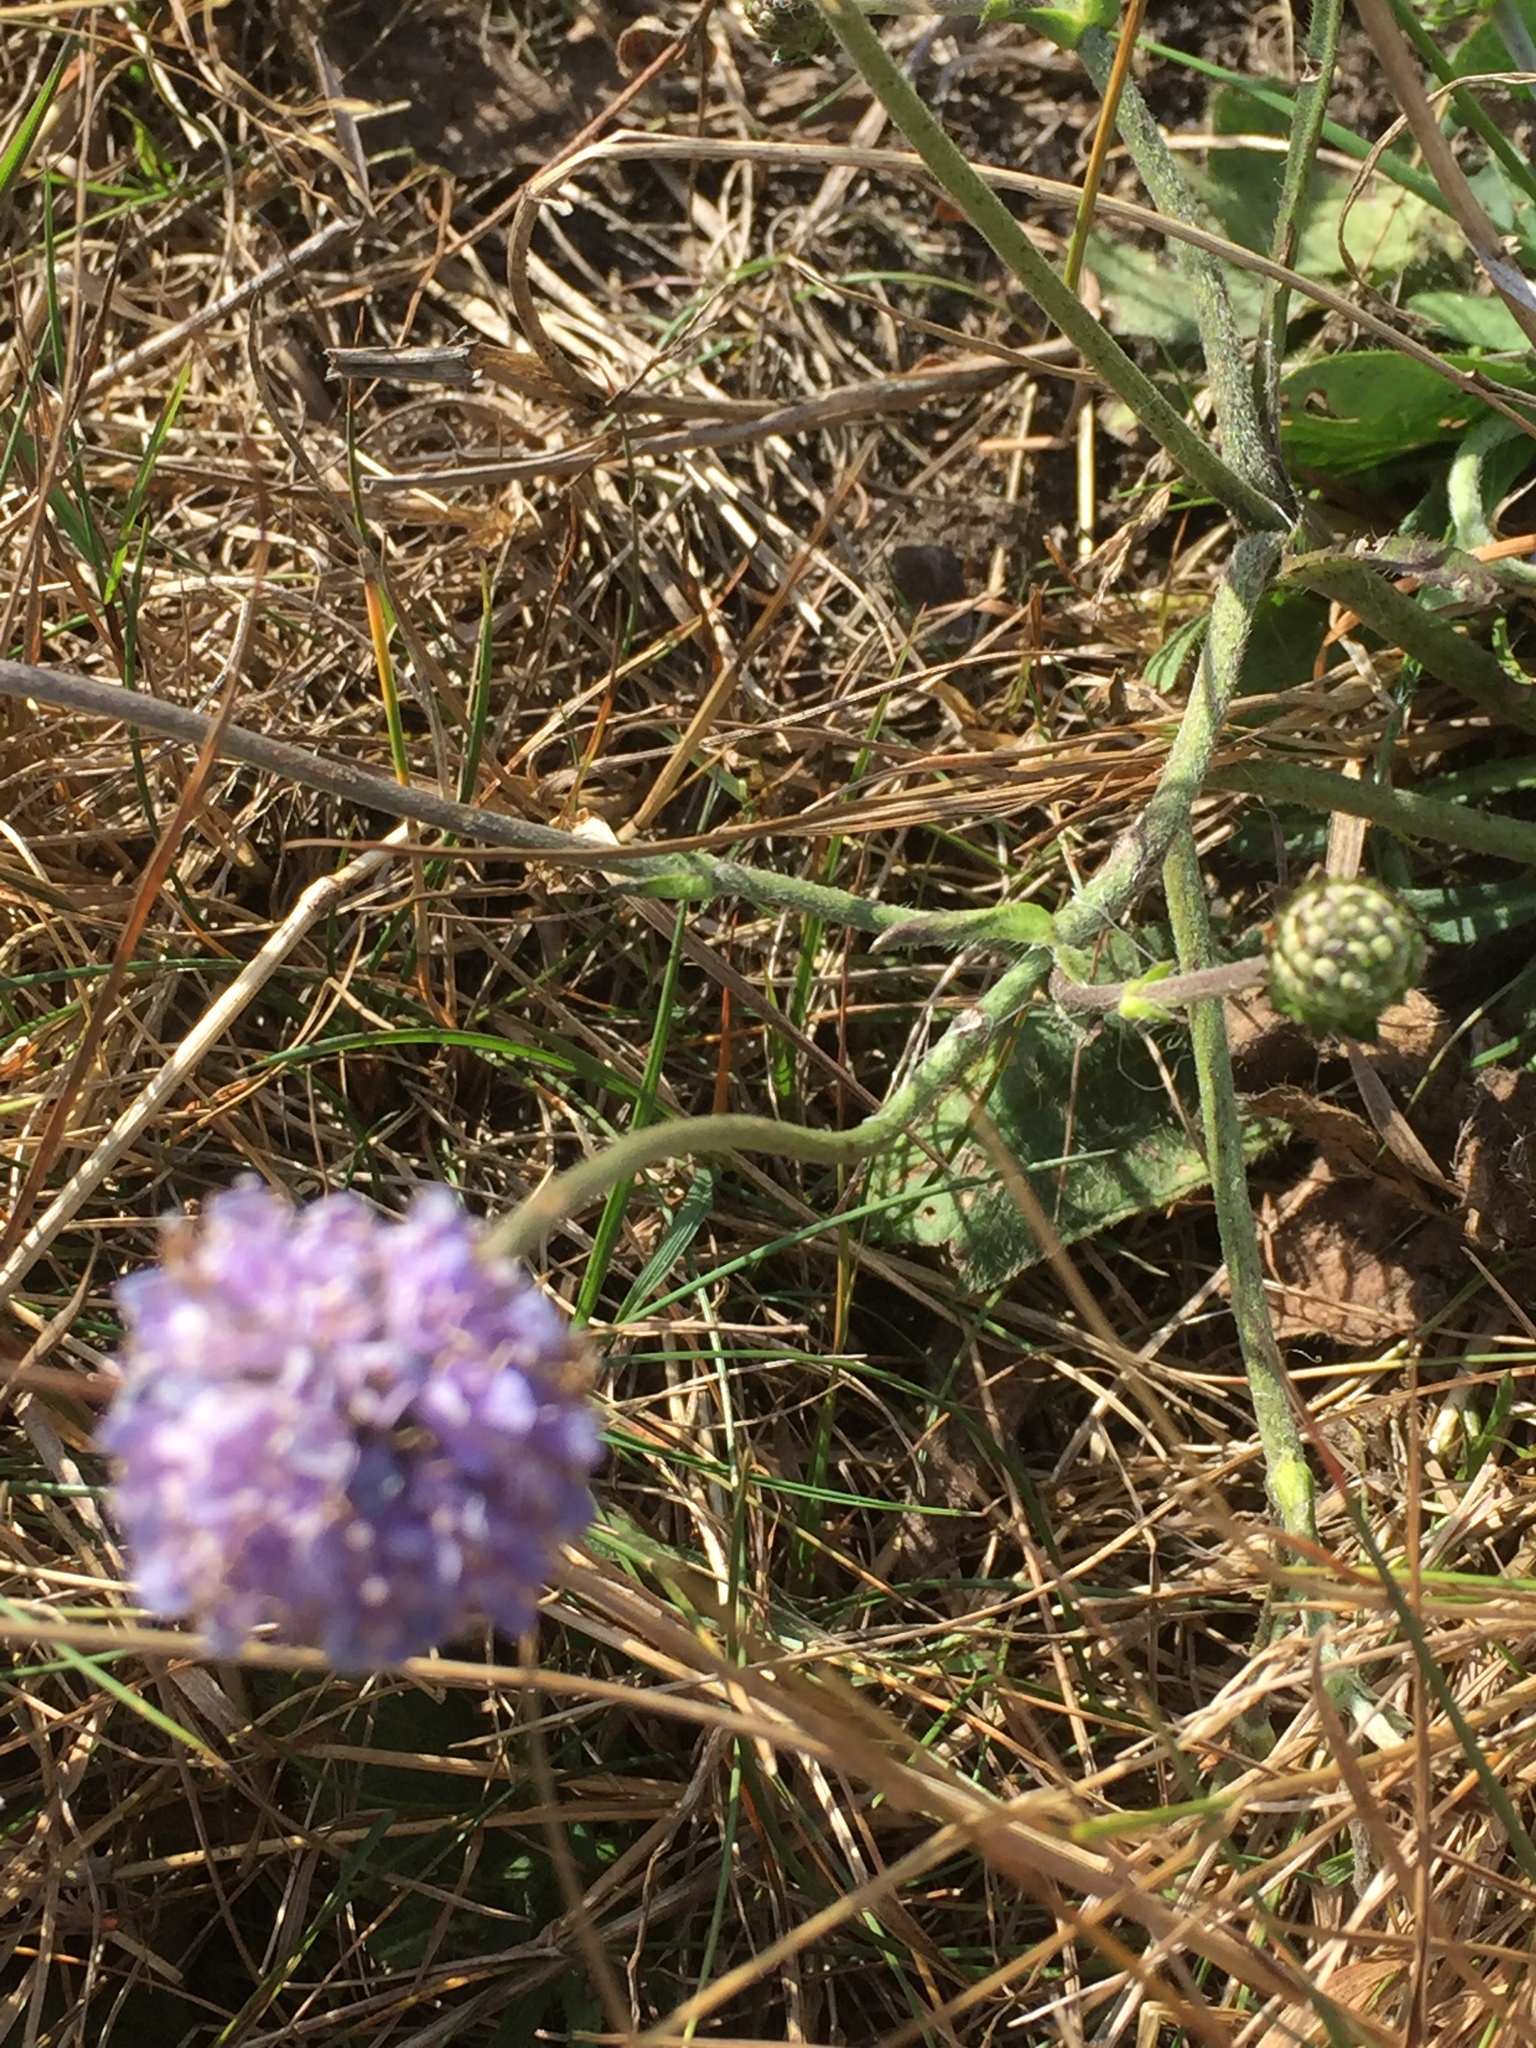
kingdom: Plantae
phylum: Tracheophyta
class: Magnoliopsida
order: Dipsacales
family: Caprifoliaceae
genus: Succisa
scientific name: Succisa pratensis
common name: Devil's-bit
